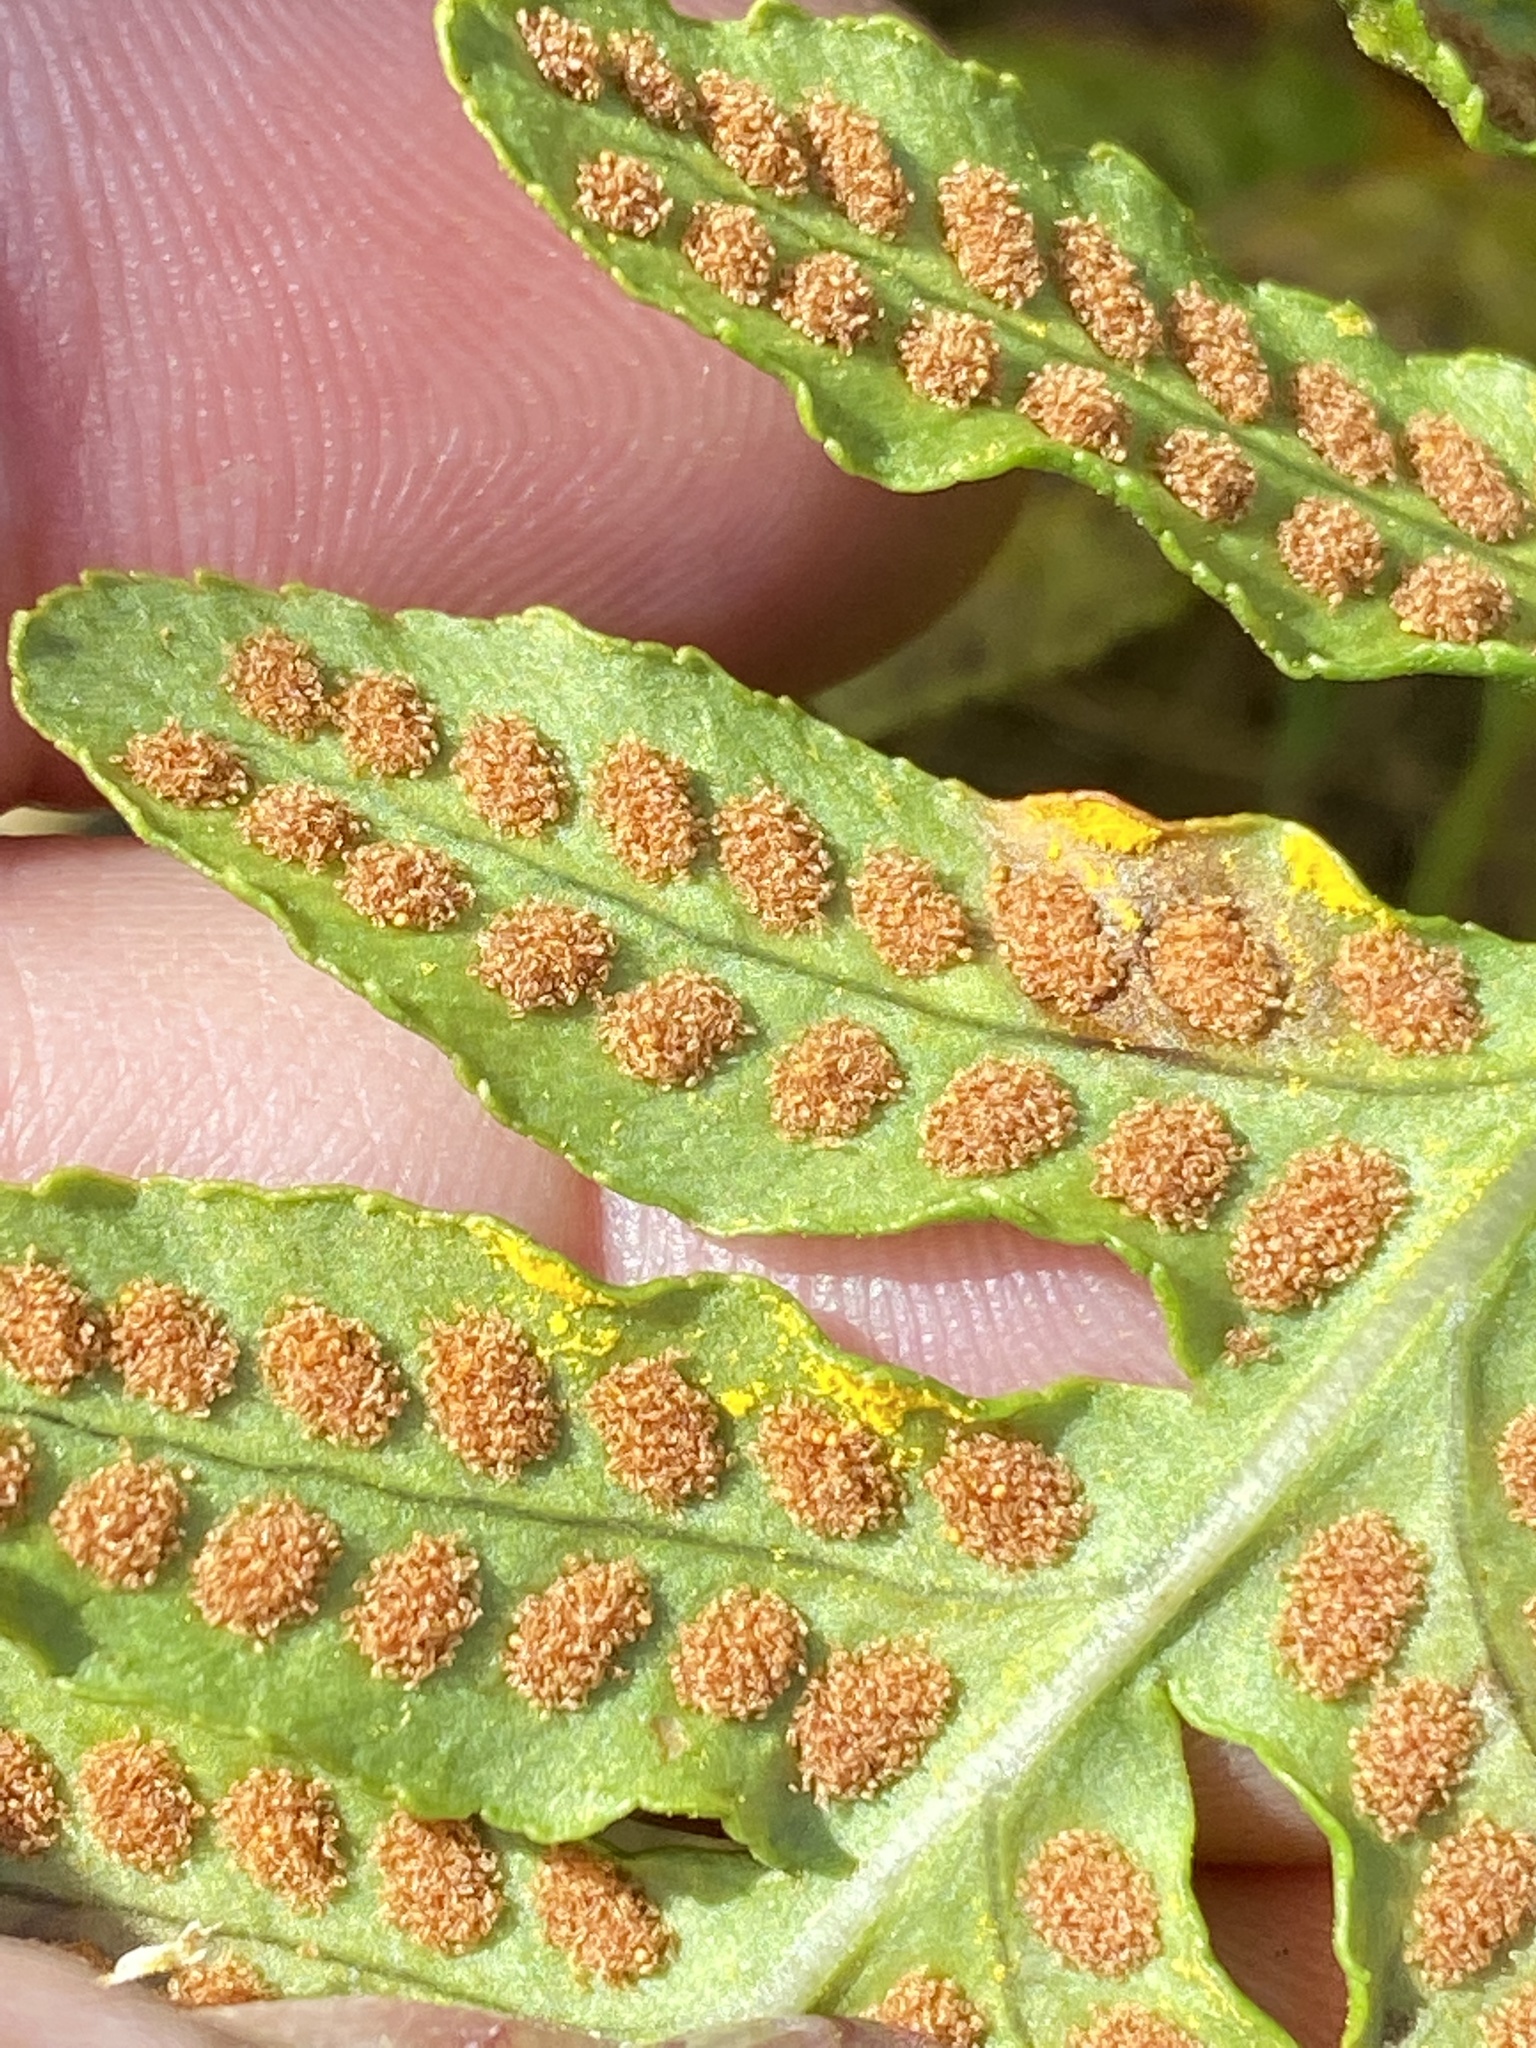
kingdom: Plantae
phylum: Tracheophyta
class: Polypodiopsida
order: Polypodiales
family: Polypodiaceae
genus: Polypodium
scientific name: Polypodium californicum
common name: California polypody
